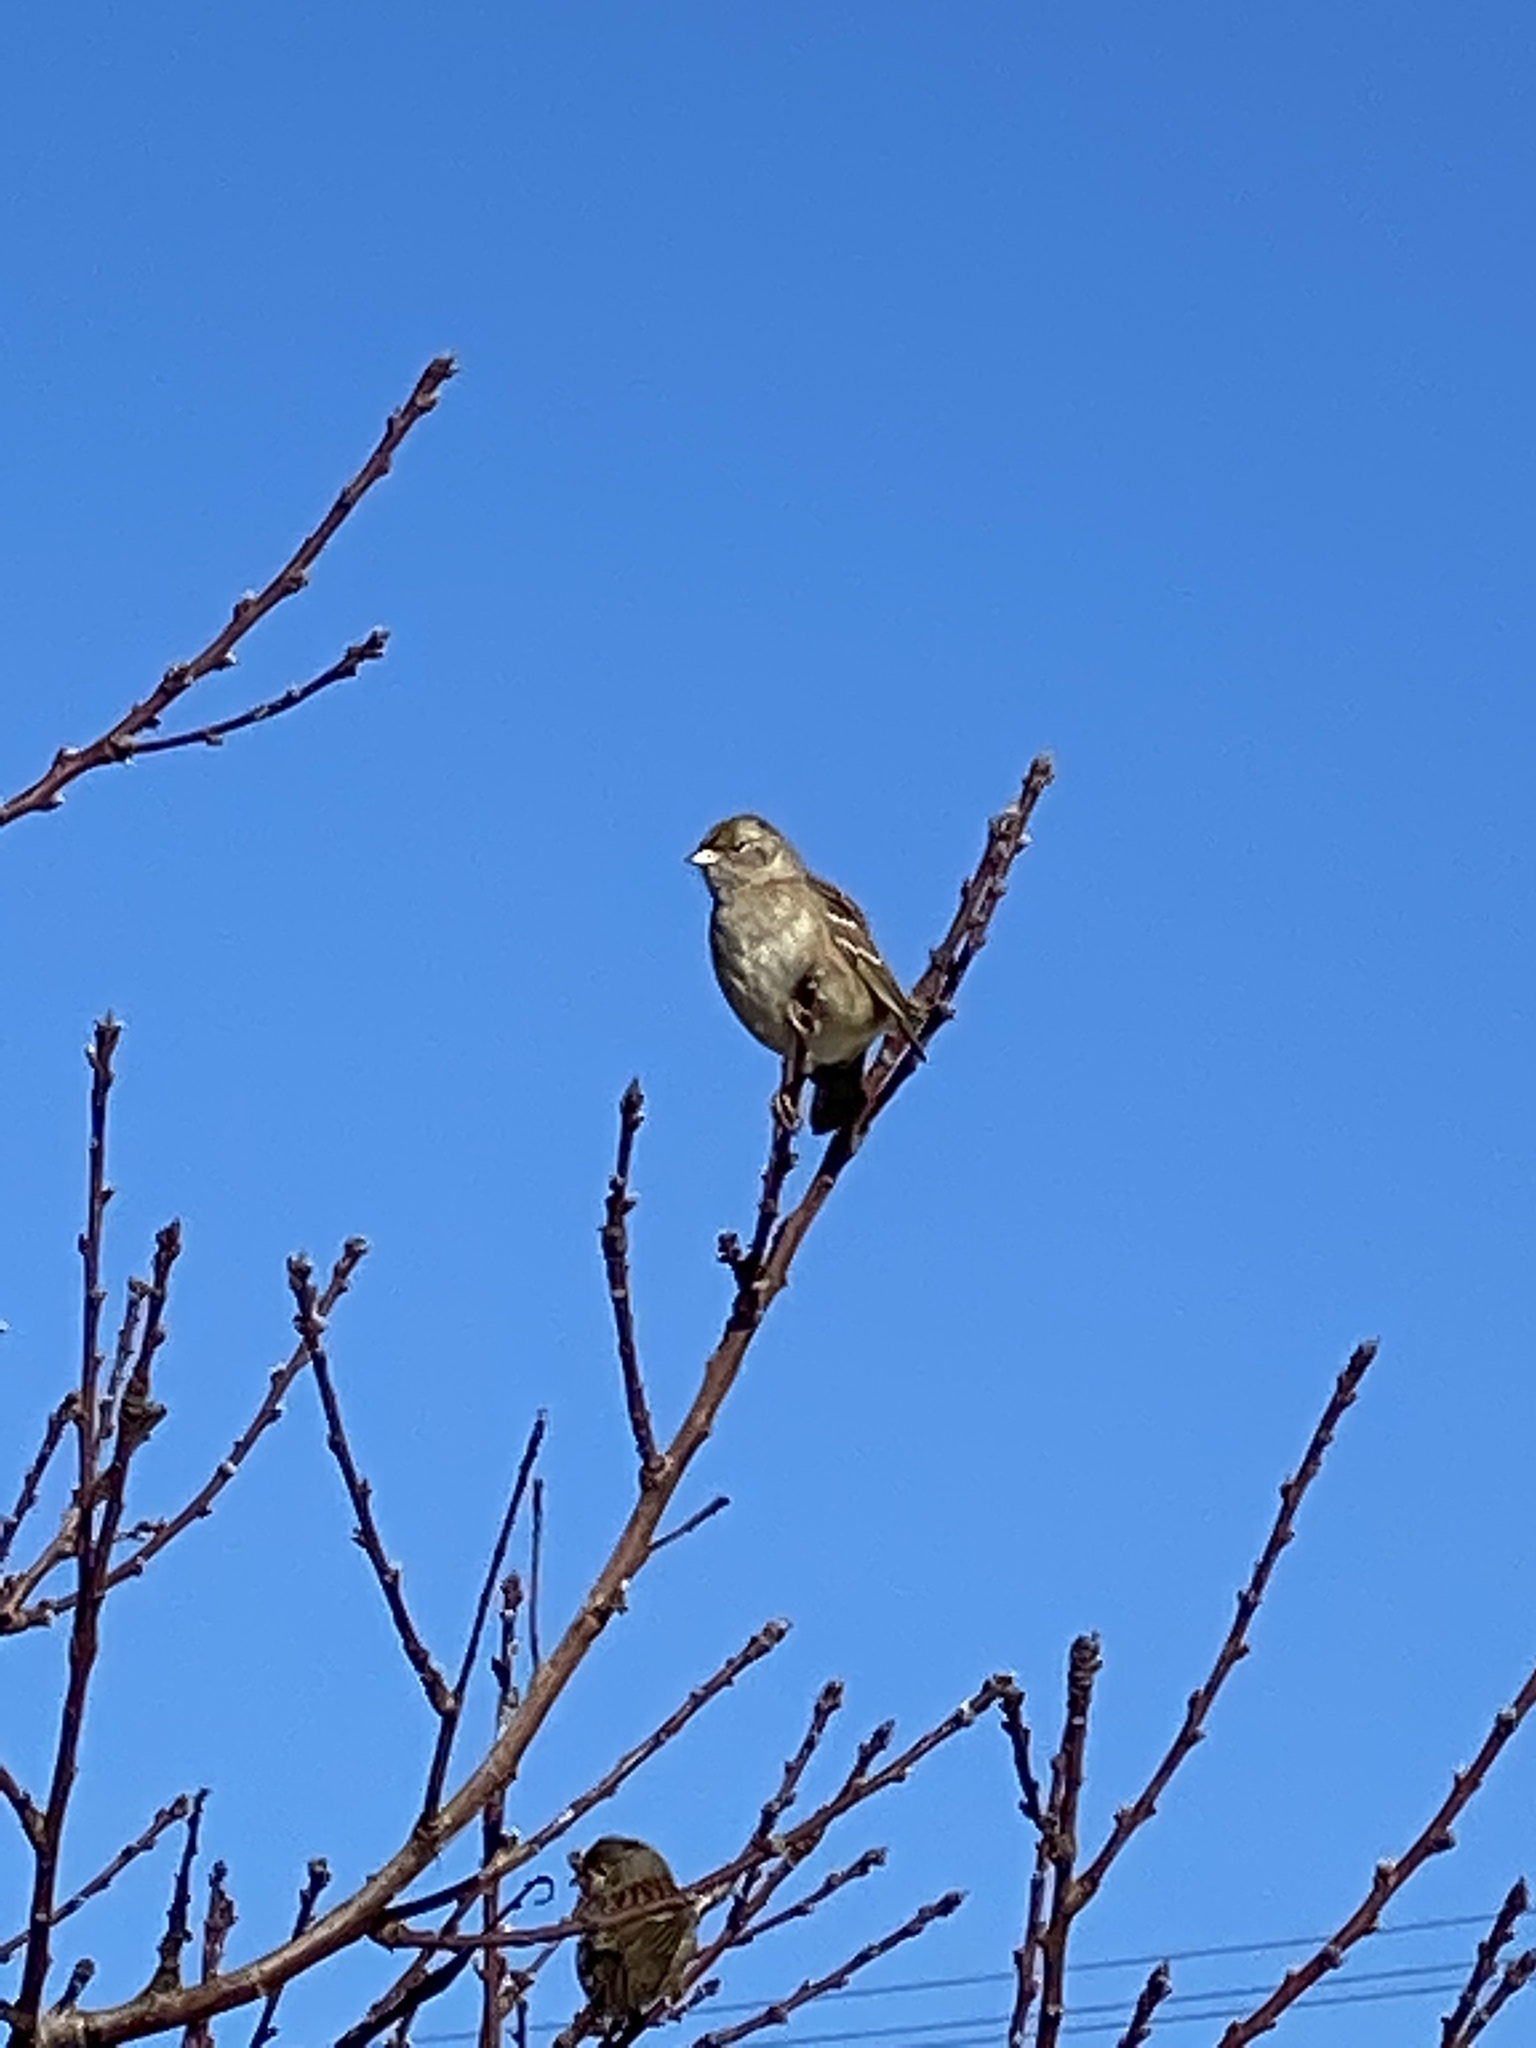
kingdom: Animalia
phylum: Chordata
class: Aves
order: Passeriformes
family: Passerellidae
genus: Zonotrichia
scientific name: Zonotrichia atricapilla
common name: Golden-crowned sparrow
